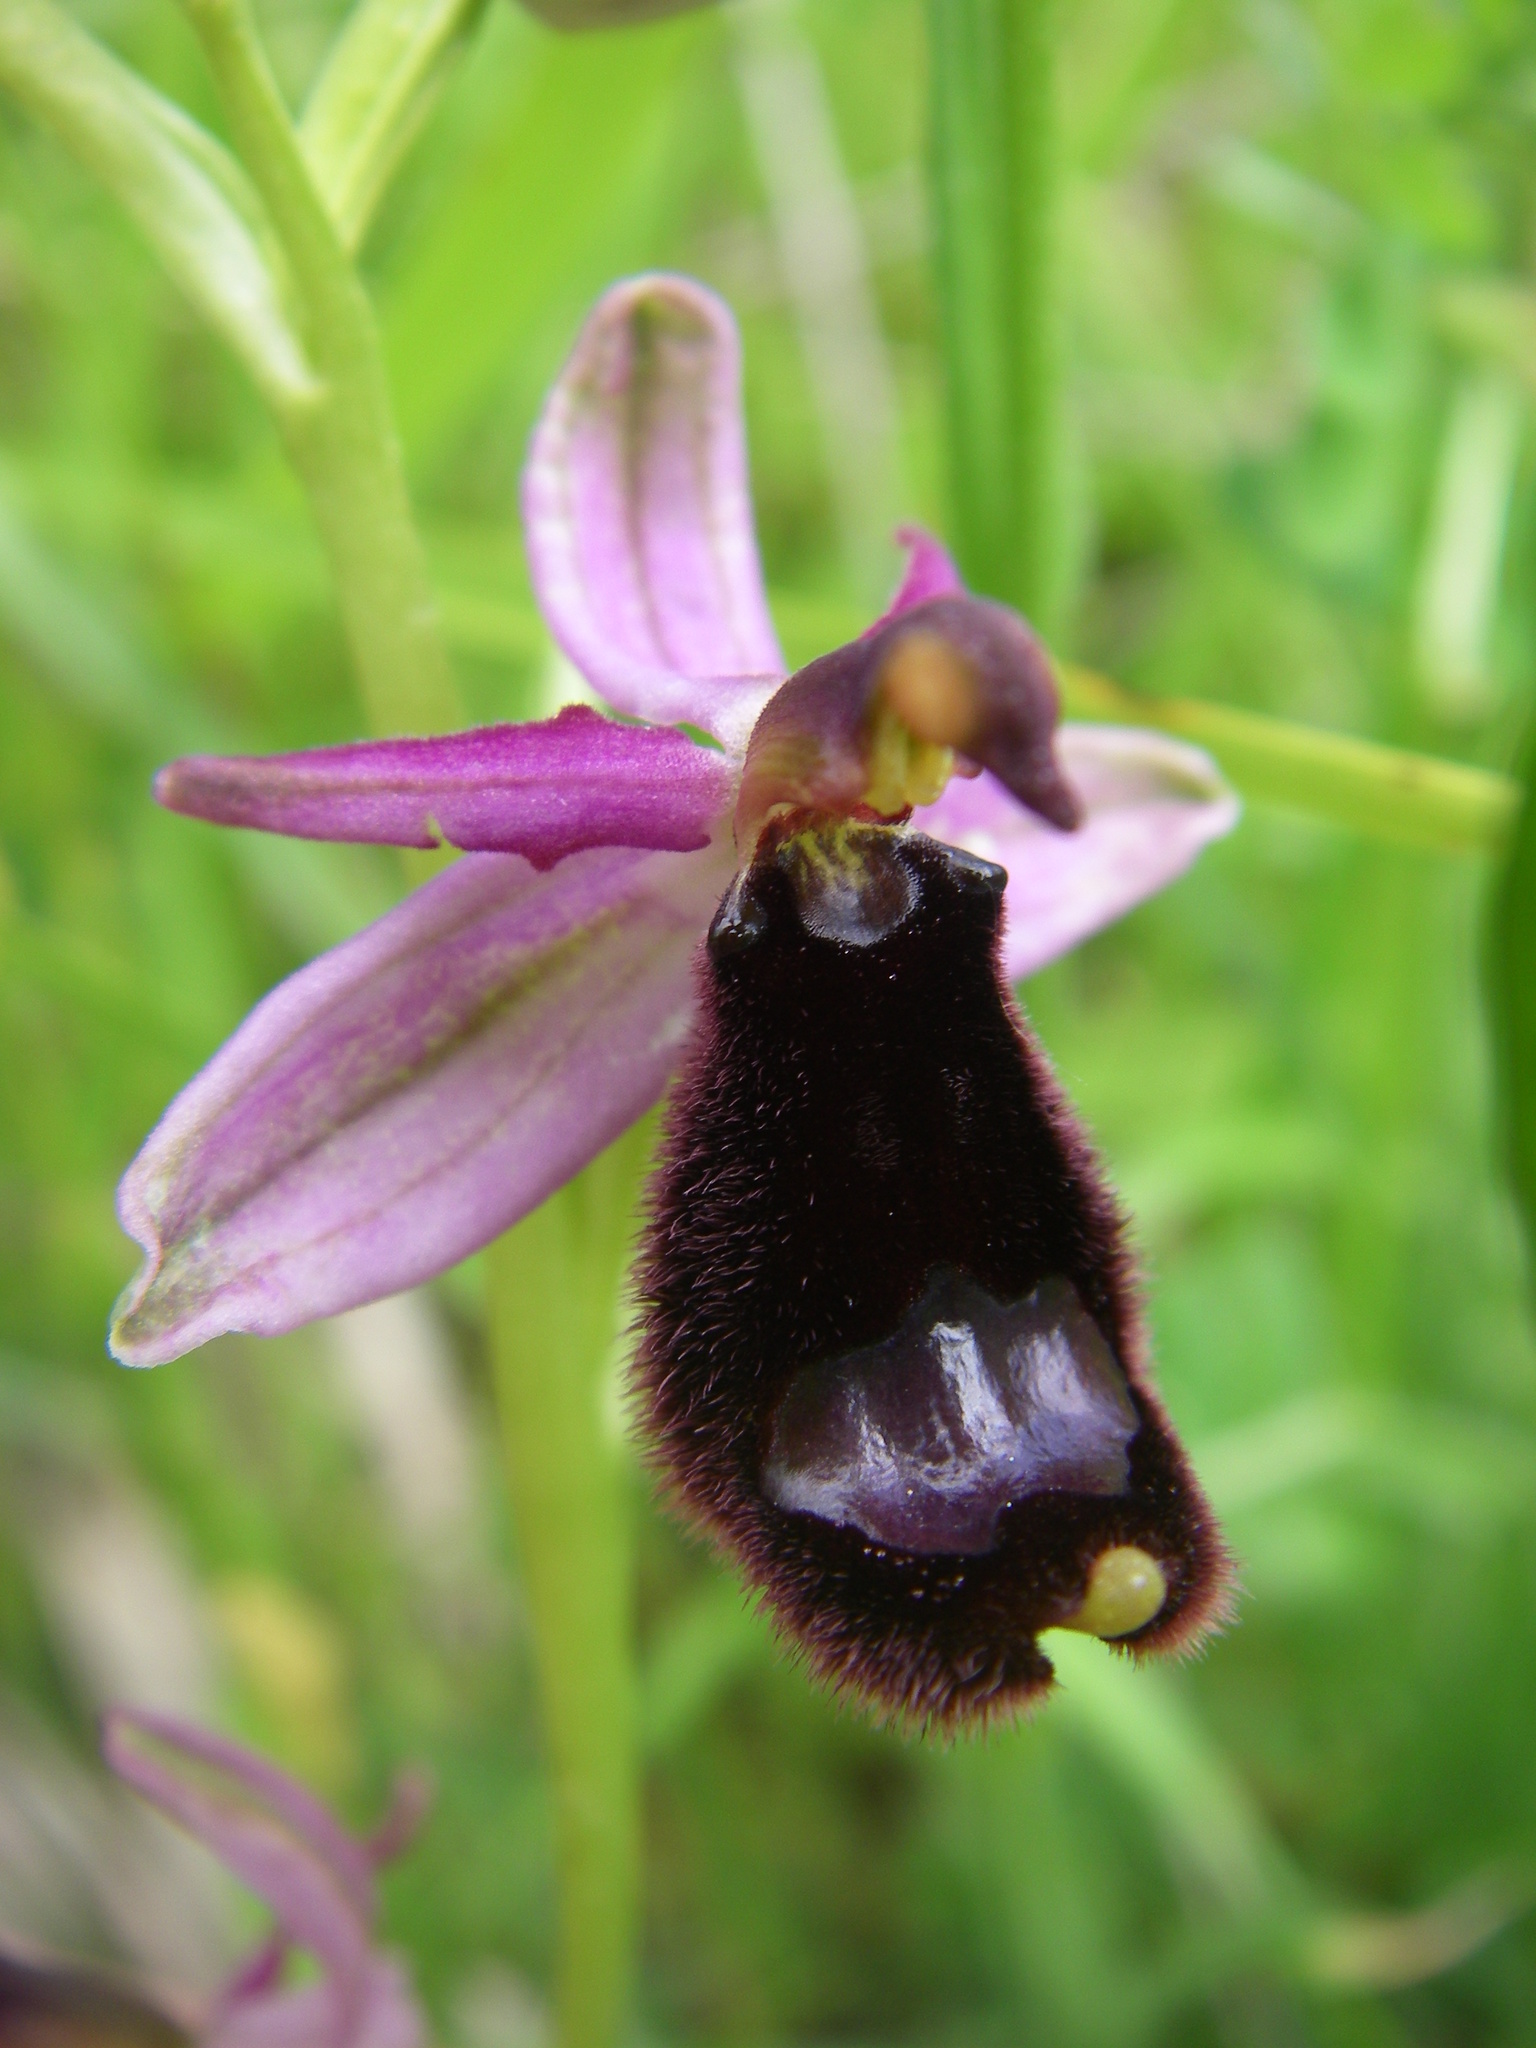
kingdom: Plantae
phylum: Tracheophyta
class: Liliopsida
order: Asparagales
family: Orchidaceae
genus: Ophrys
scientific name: Ophrys bertolonii
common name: Bertoloni's bee orchid
